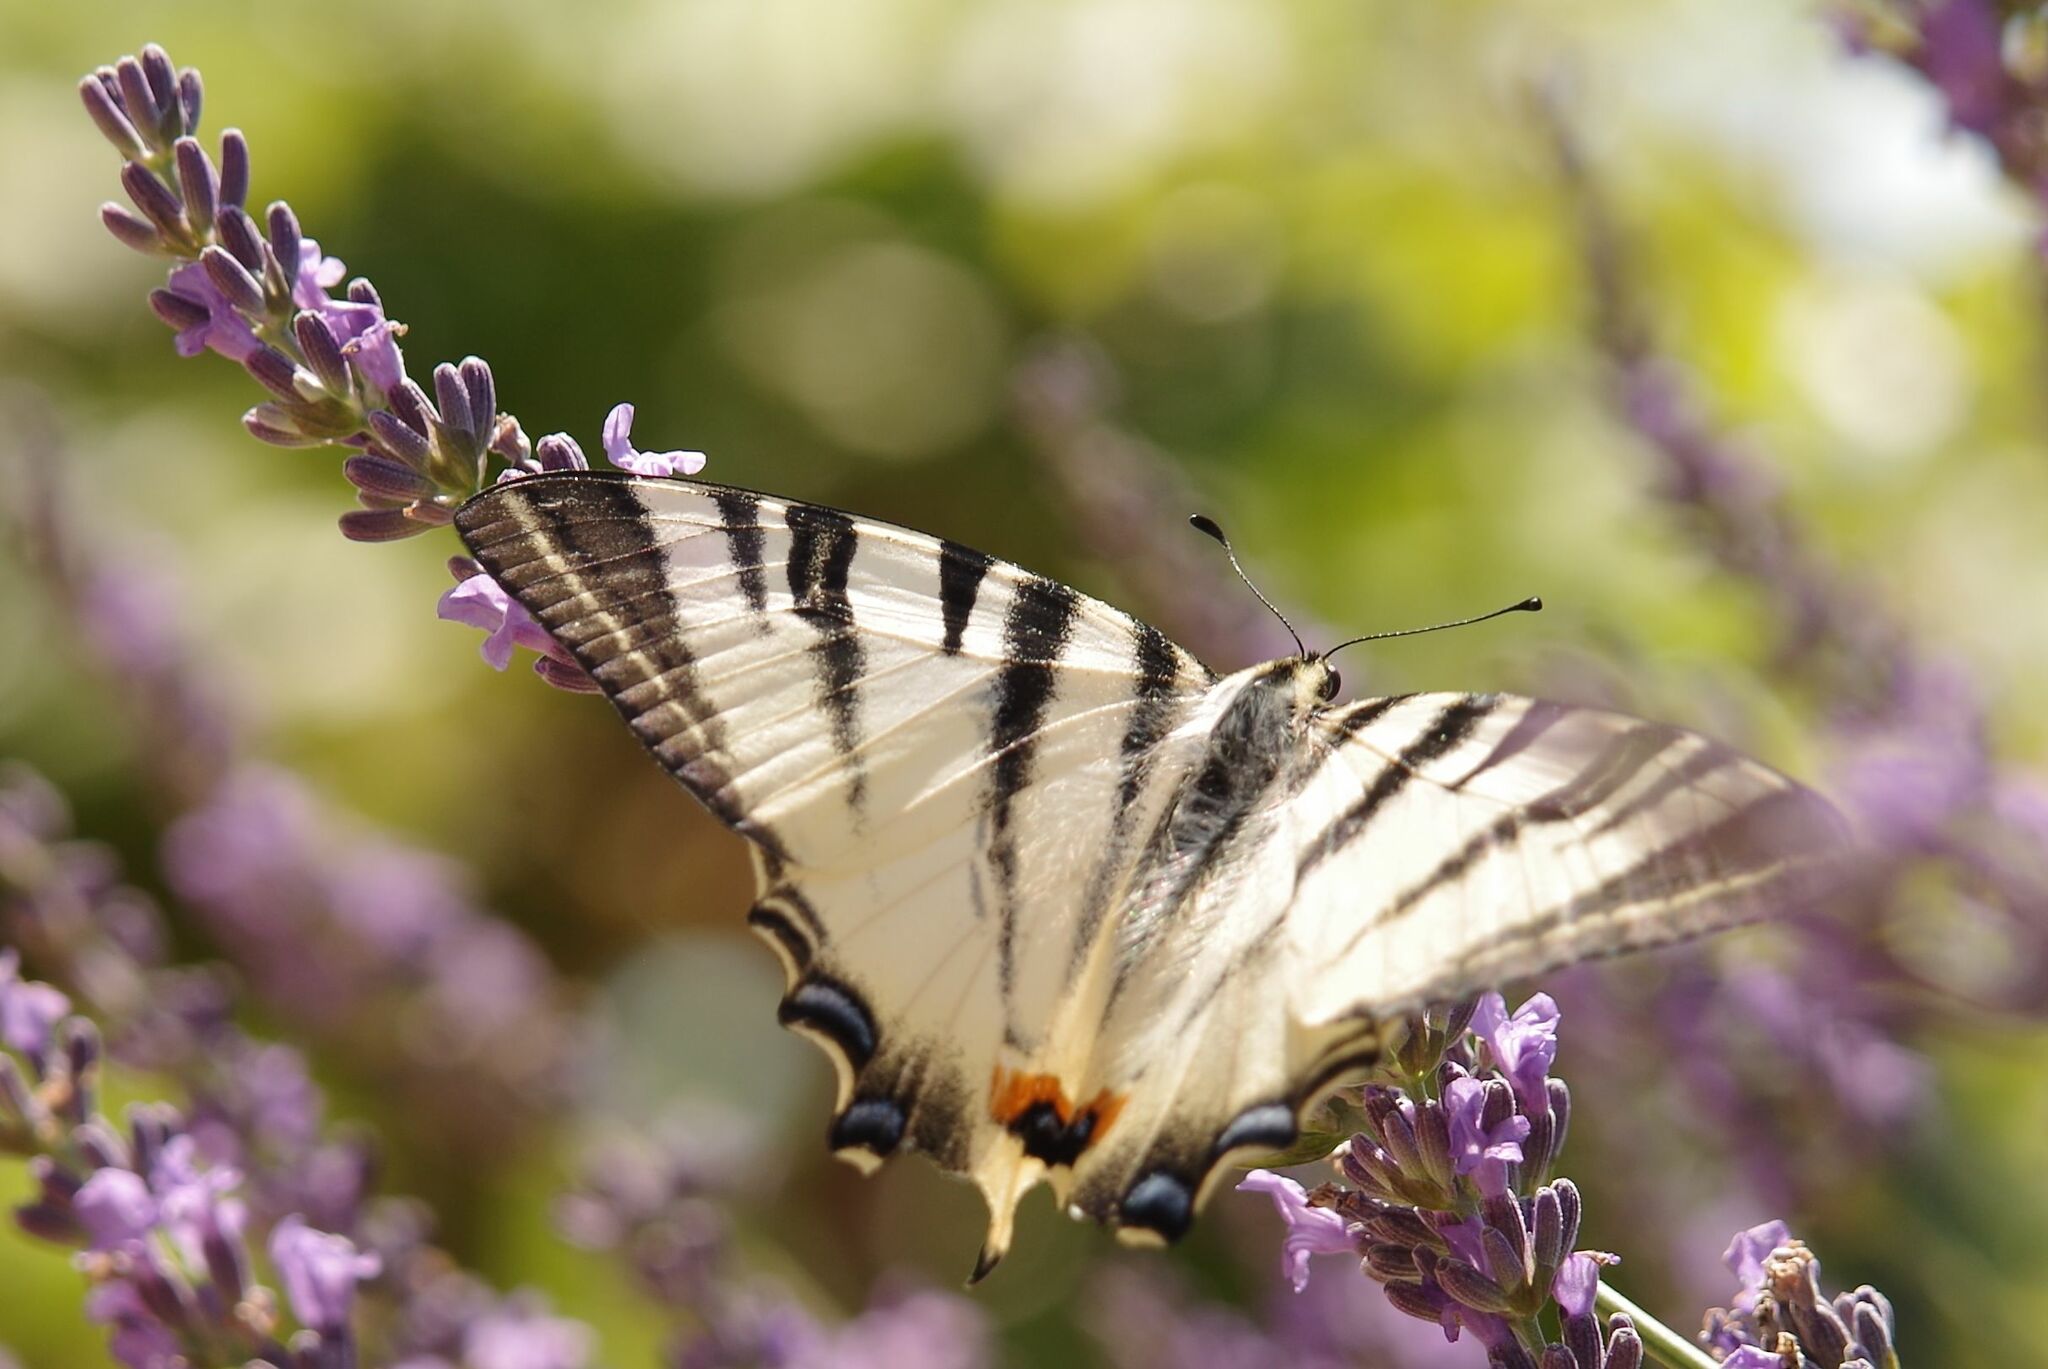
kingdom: Animalia
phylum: Arthropoda
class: Insecta
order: Lepidoptera
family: Papilionidae
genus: Iphiclides
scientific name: Iphiclides podalirius
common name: Scarce swallowtail
